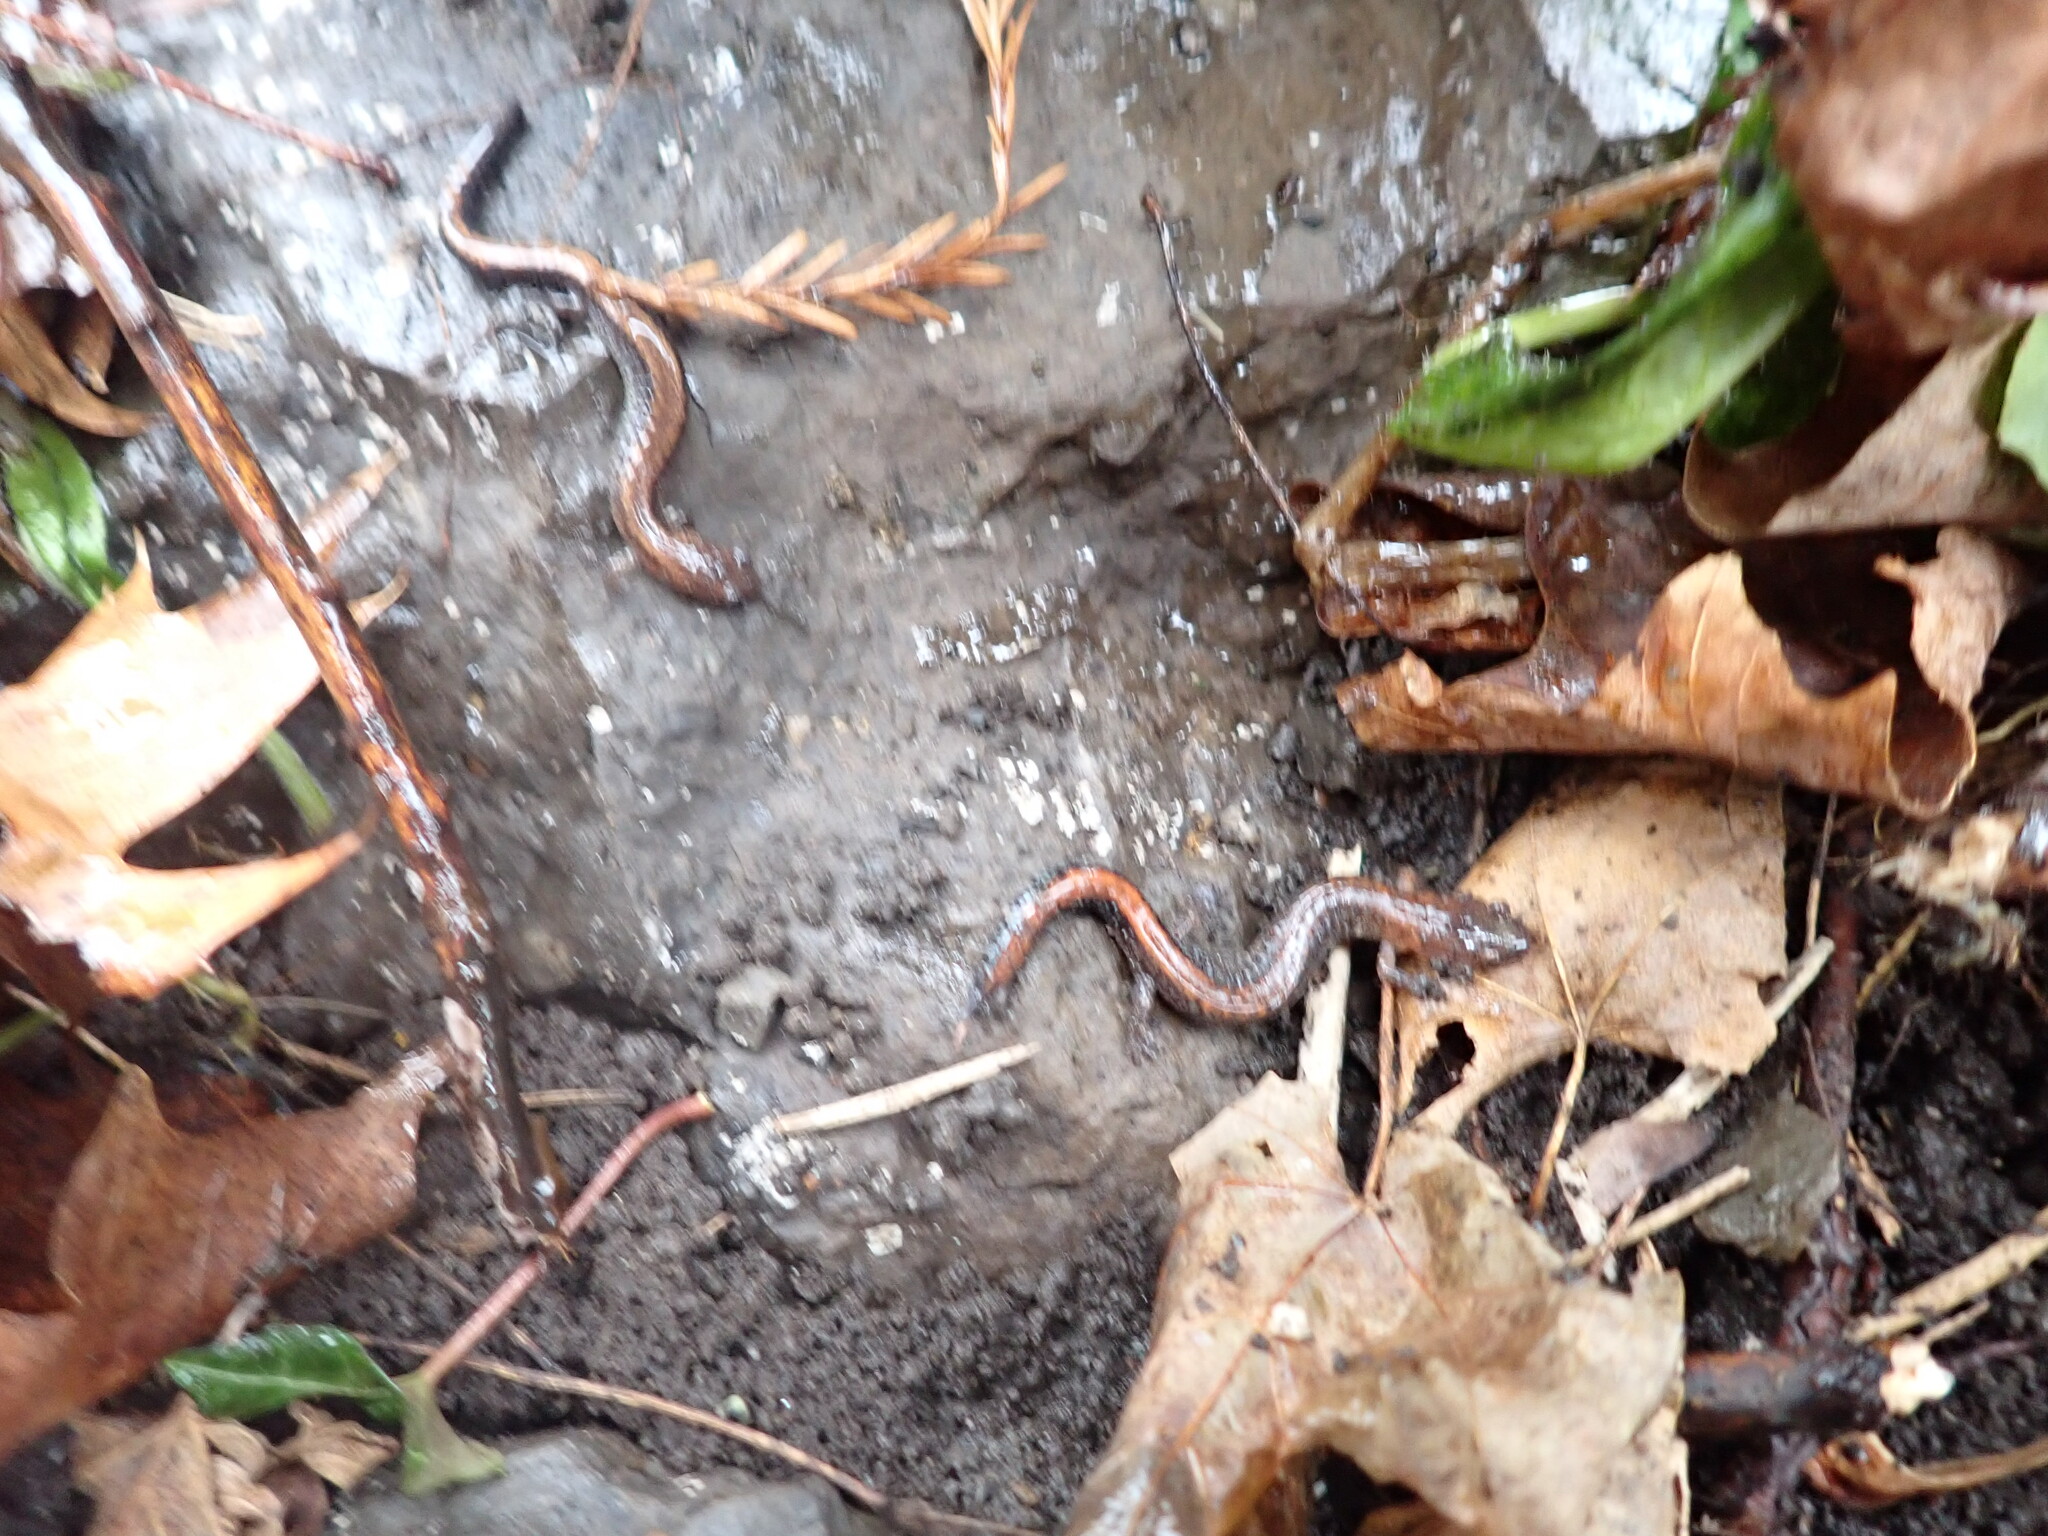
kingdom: Animalia
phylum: Chordata
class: Amphibia
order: Caudata
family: Plethodontidae
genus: Plethodon
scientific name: Plethodon cinereus
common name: Redback salamander
